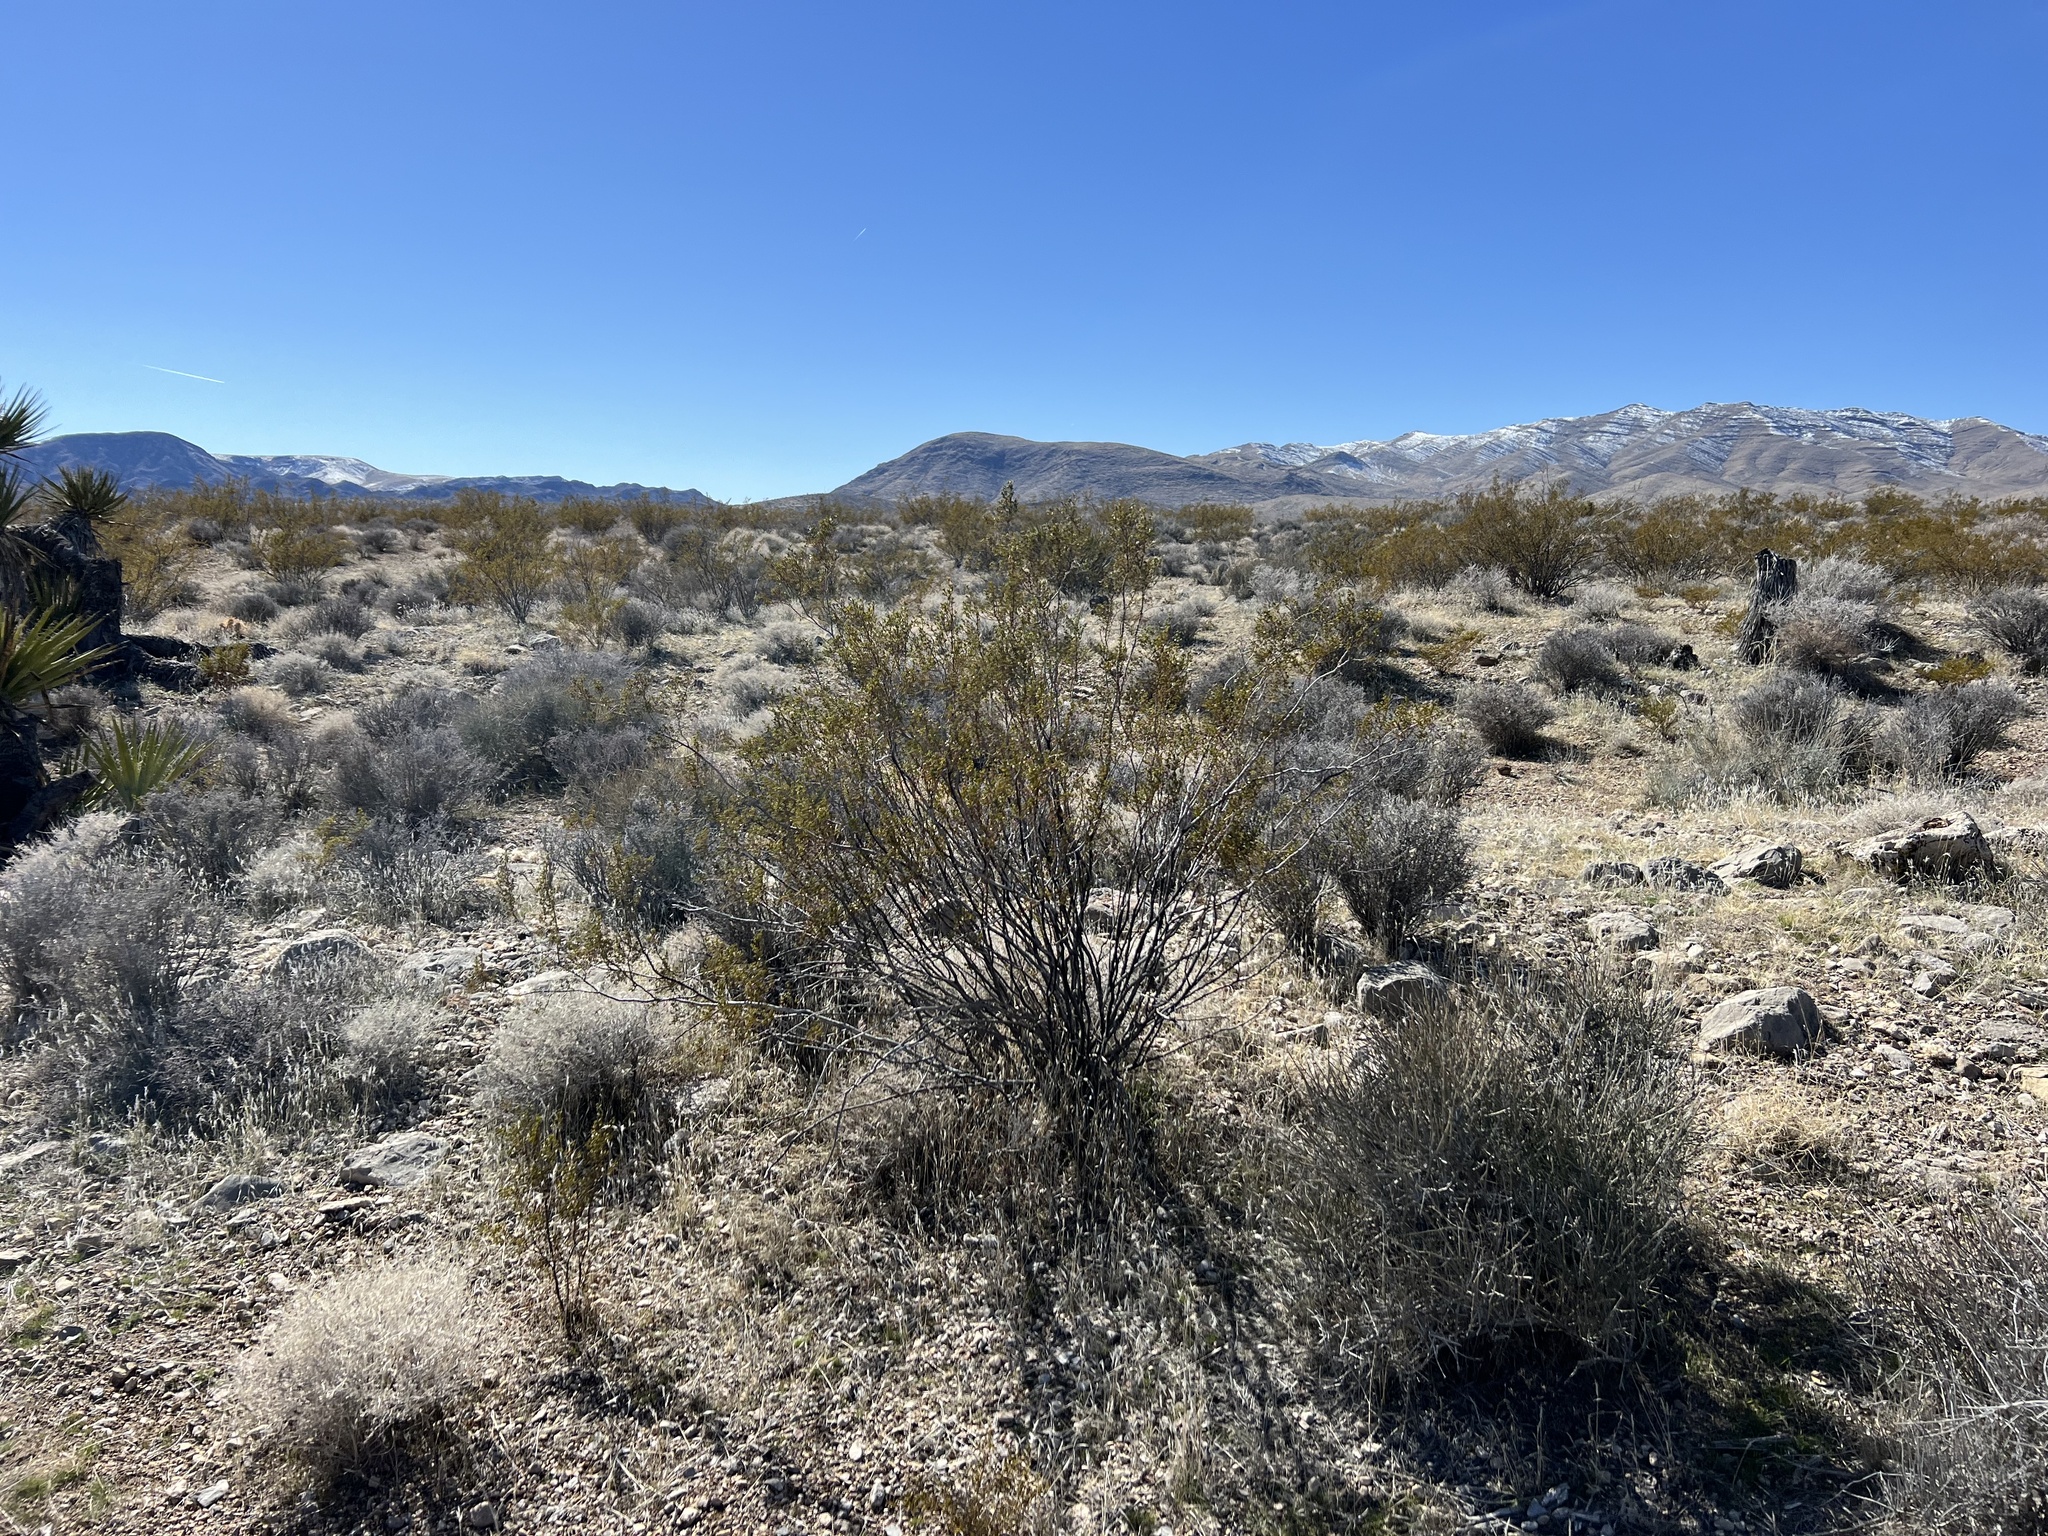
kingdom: Plantae
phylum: Tracheophyta
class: Magnoliopsida
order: Zygophyllales
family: Zygophyllaceae
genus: Larrea
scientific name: Larrea tridentata
